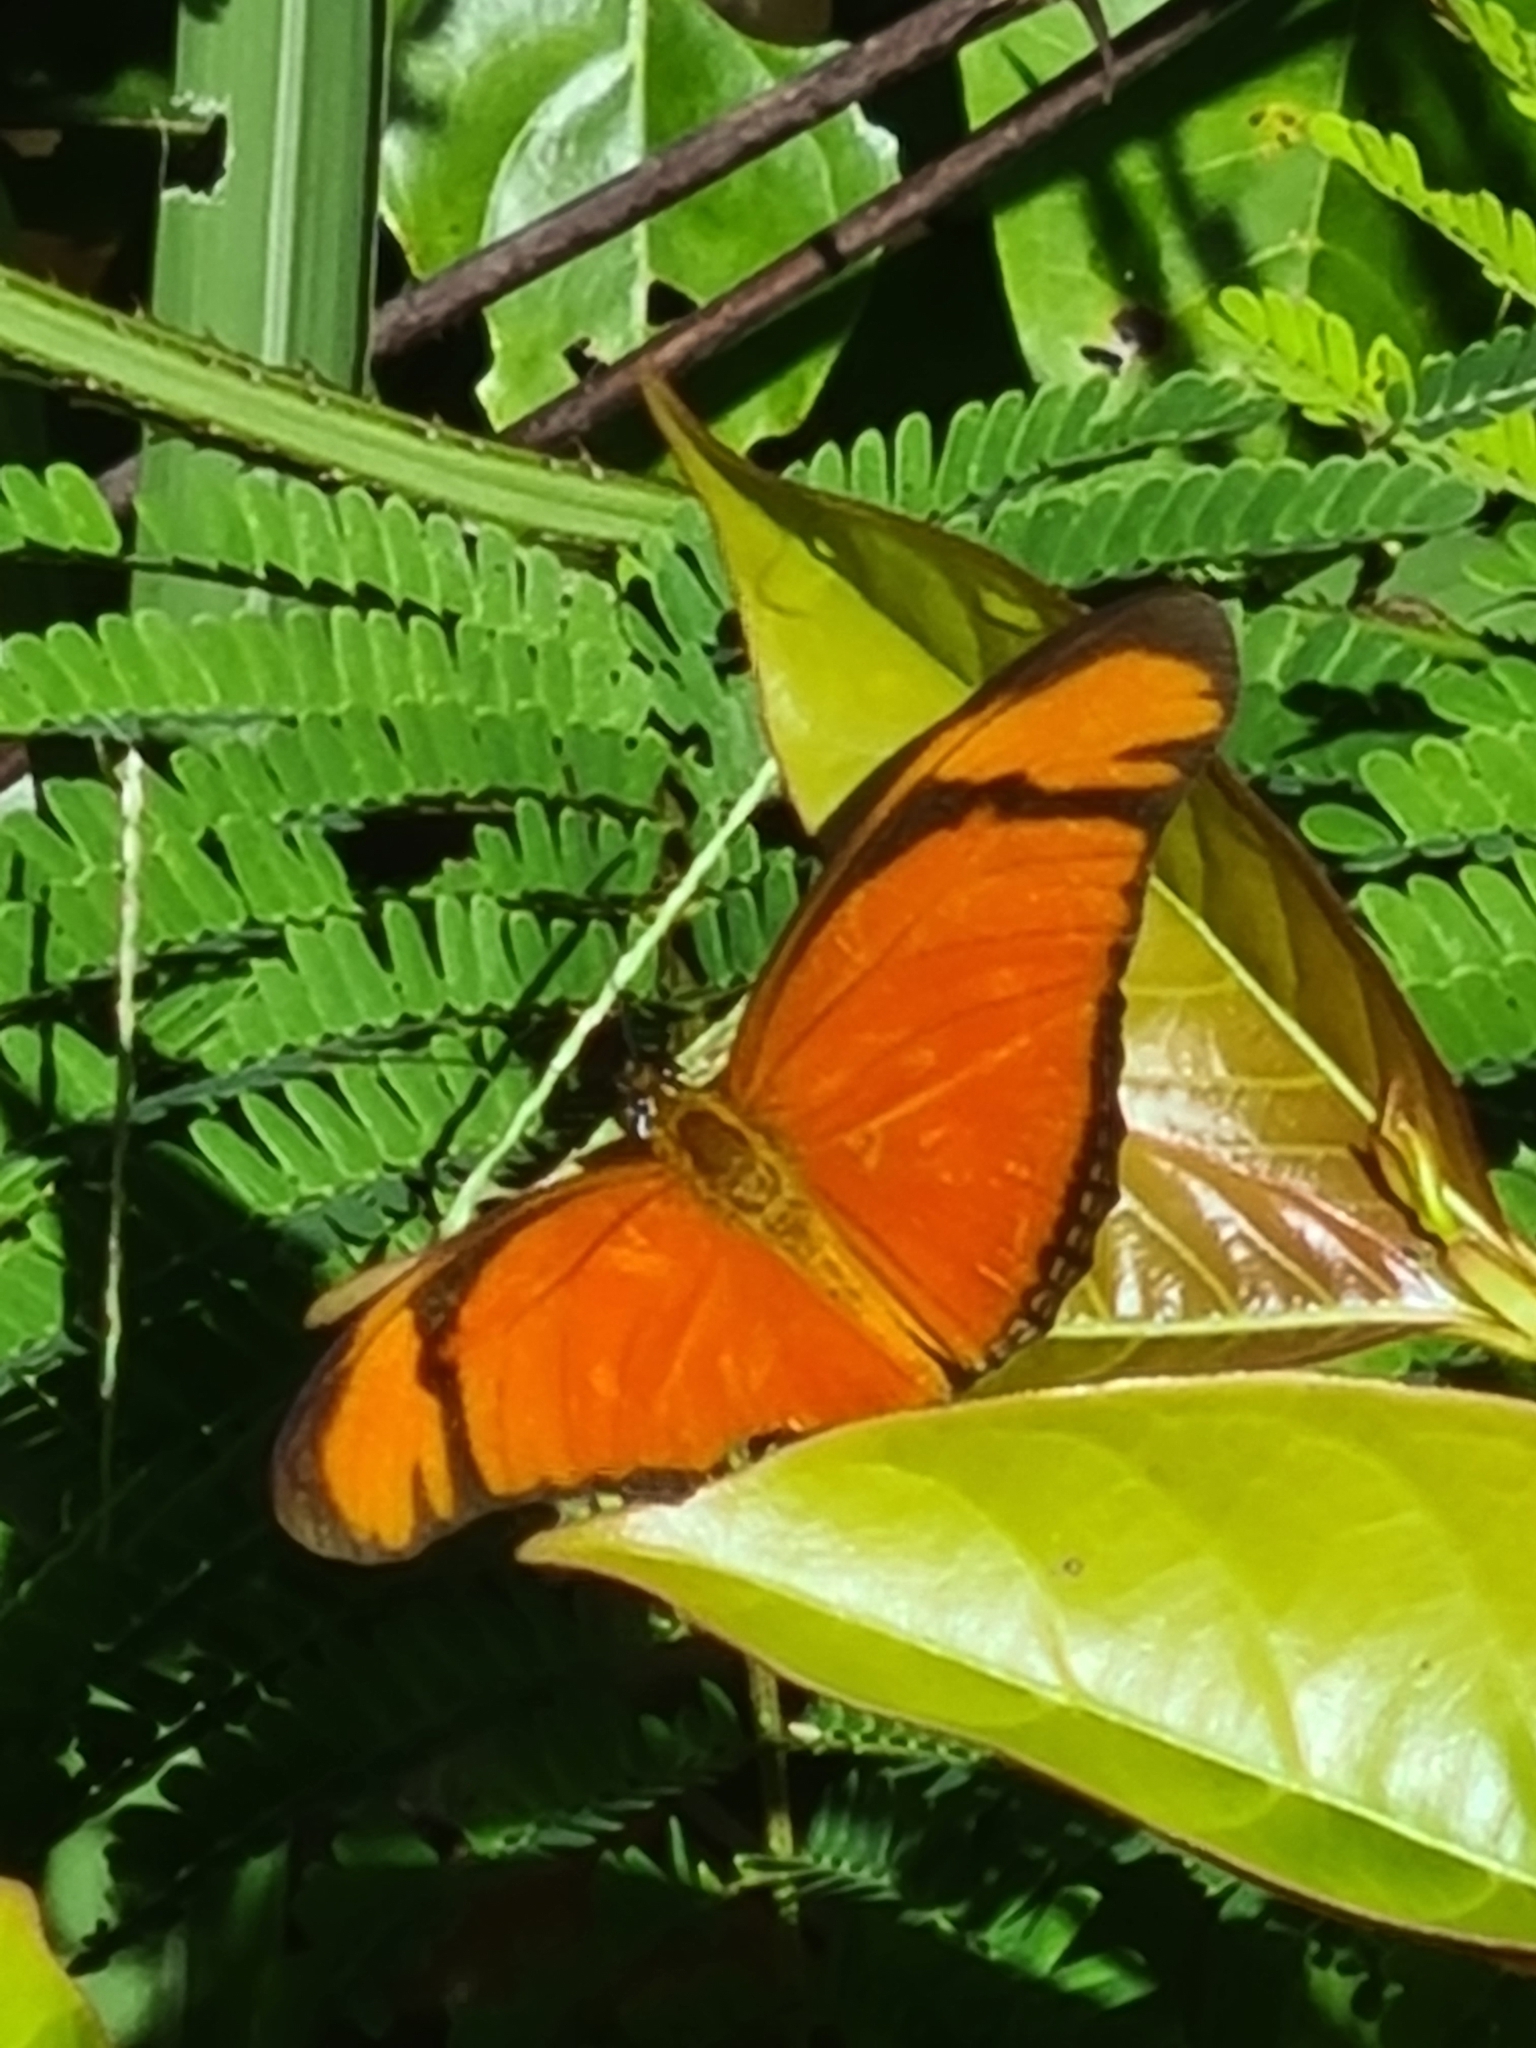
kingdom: Animalia
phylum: Arthropoda
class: Insecta
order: Lepidoptera
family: Nymphalidae
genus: Dryas
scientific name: Dryas iulia
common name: Flambeau
